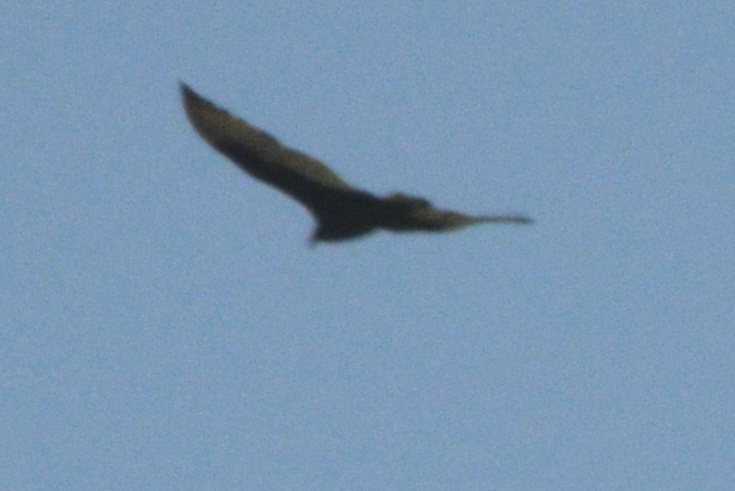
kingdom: Animalia
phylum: Chordata
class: Aves
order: Accipitriformes
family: Cathartidae
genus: Cathartes
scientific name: Cathartes aura
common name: Turkey vulture
